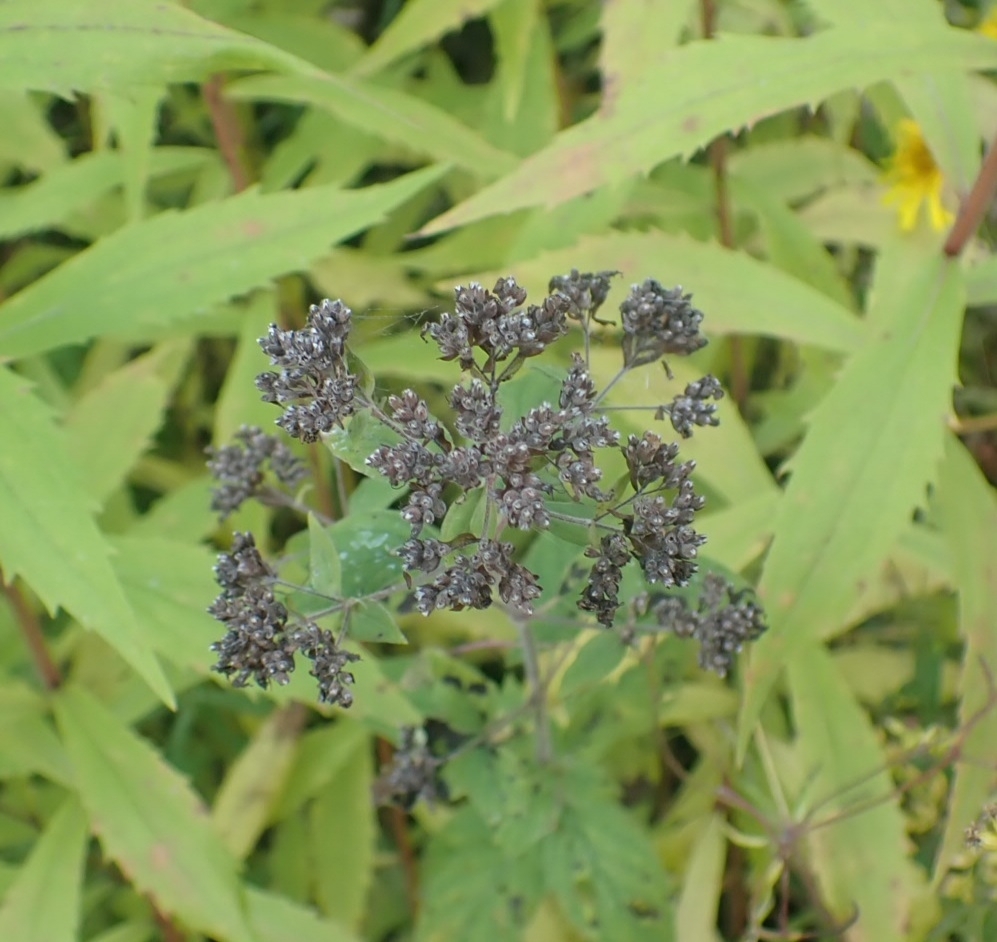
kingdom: Plantae
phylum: Tracheophyta
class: Magnoliopsida
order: Lamiales
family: Lamiaceae
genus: Origanum
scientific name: Origanum vulgare
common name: Wild marjoram
